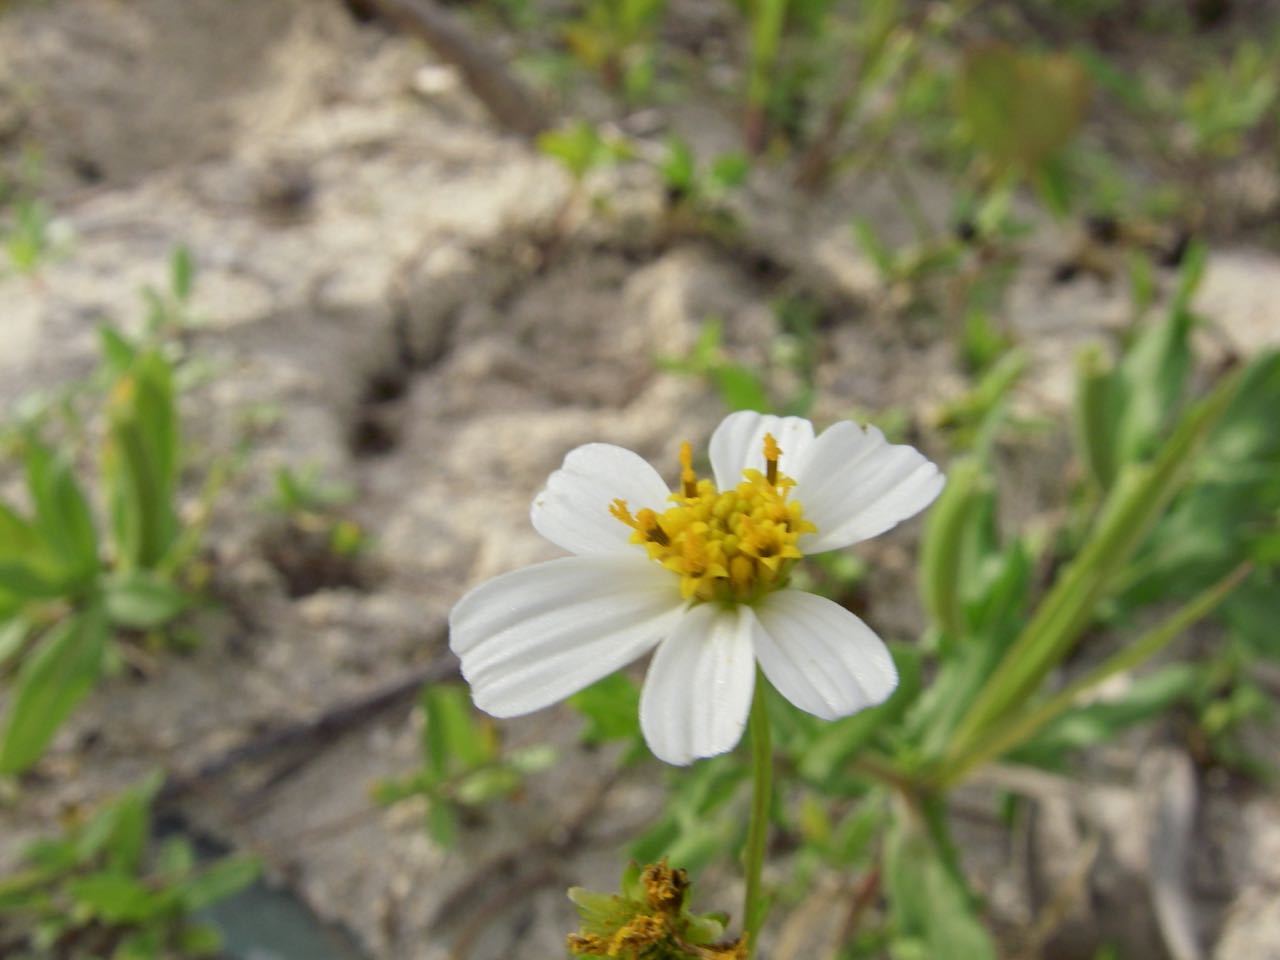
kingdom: Plantae
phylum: Tracheophyta
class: Magnoliopsida
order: Asterales
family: Asteraceae
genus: Bidens
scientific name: Bidens alba
